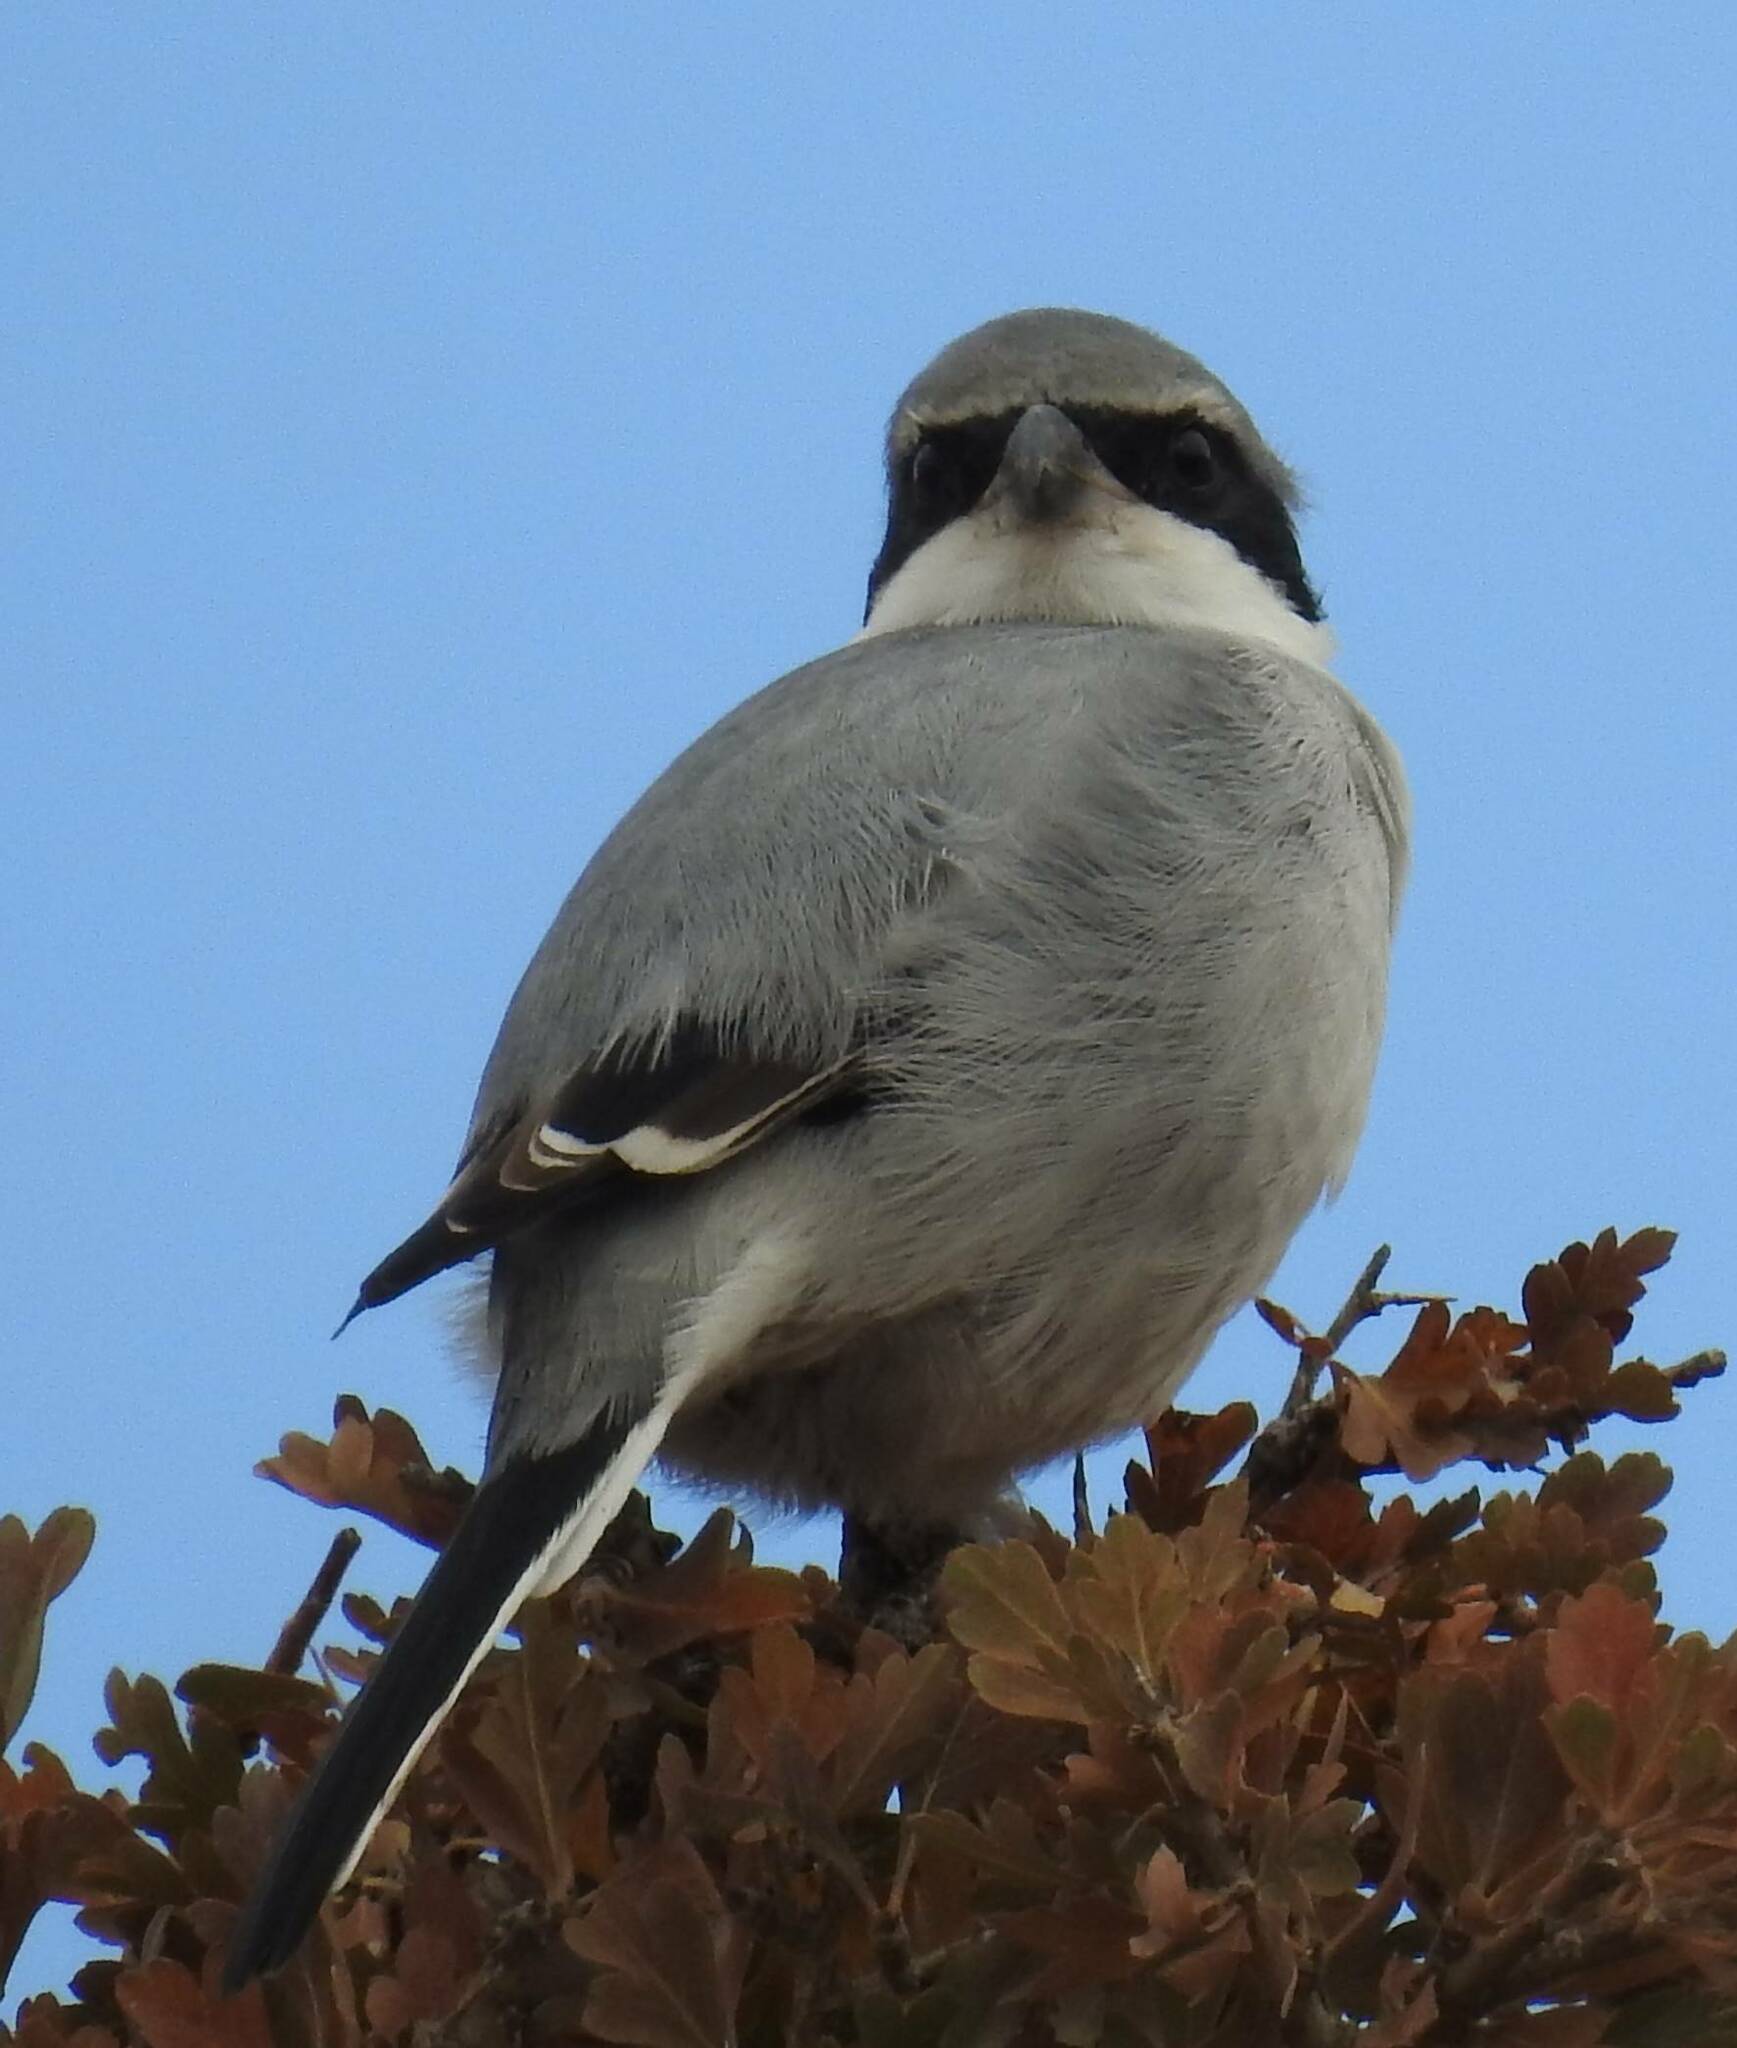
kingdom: Animalia
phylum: Chordata
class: Aves
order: Passeriformes
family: Laniidae
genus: Lanius
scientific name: Lanius excubitor
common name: Great grey shrike
